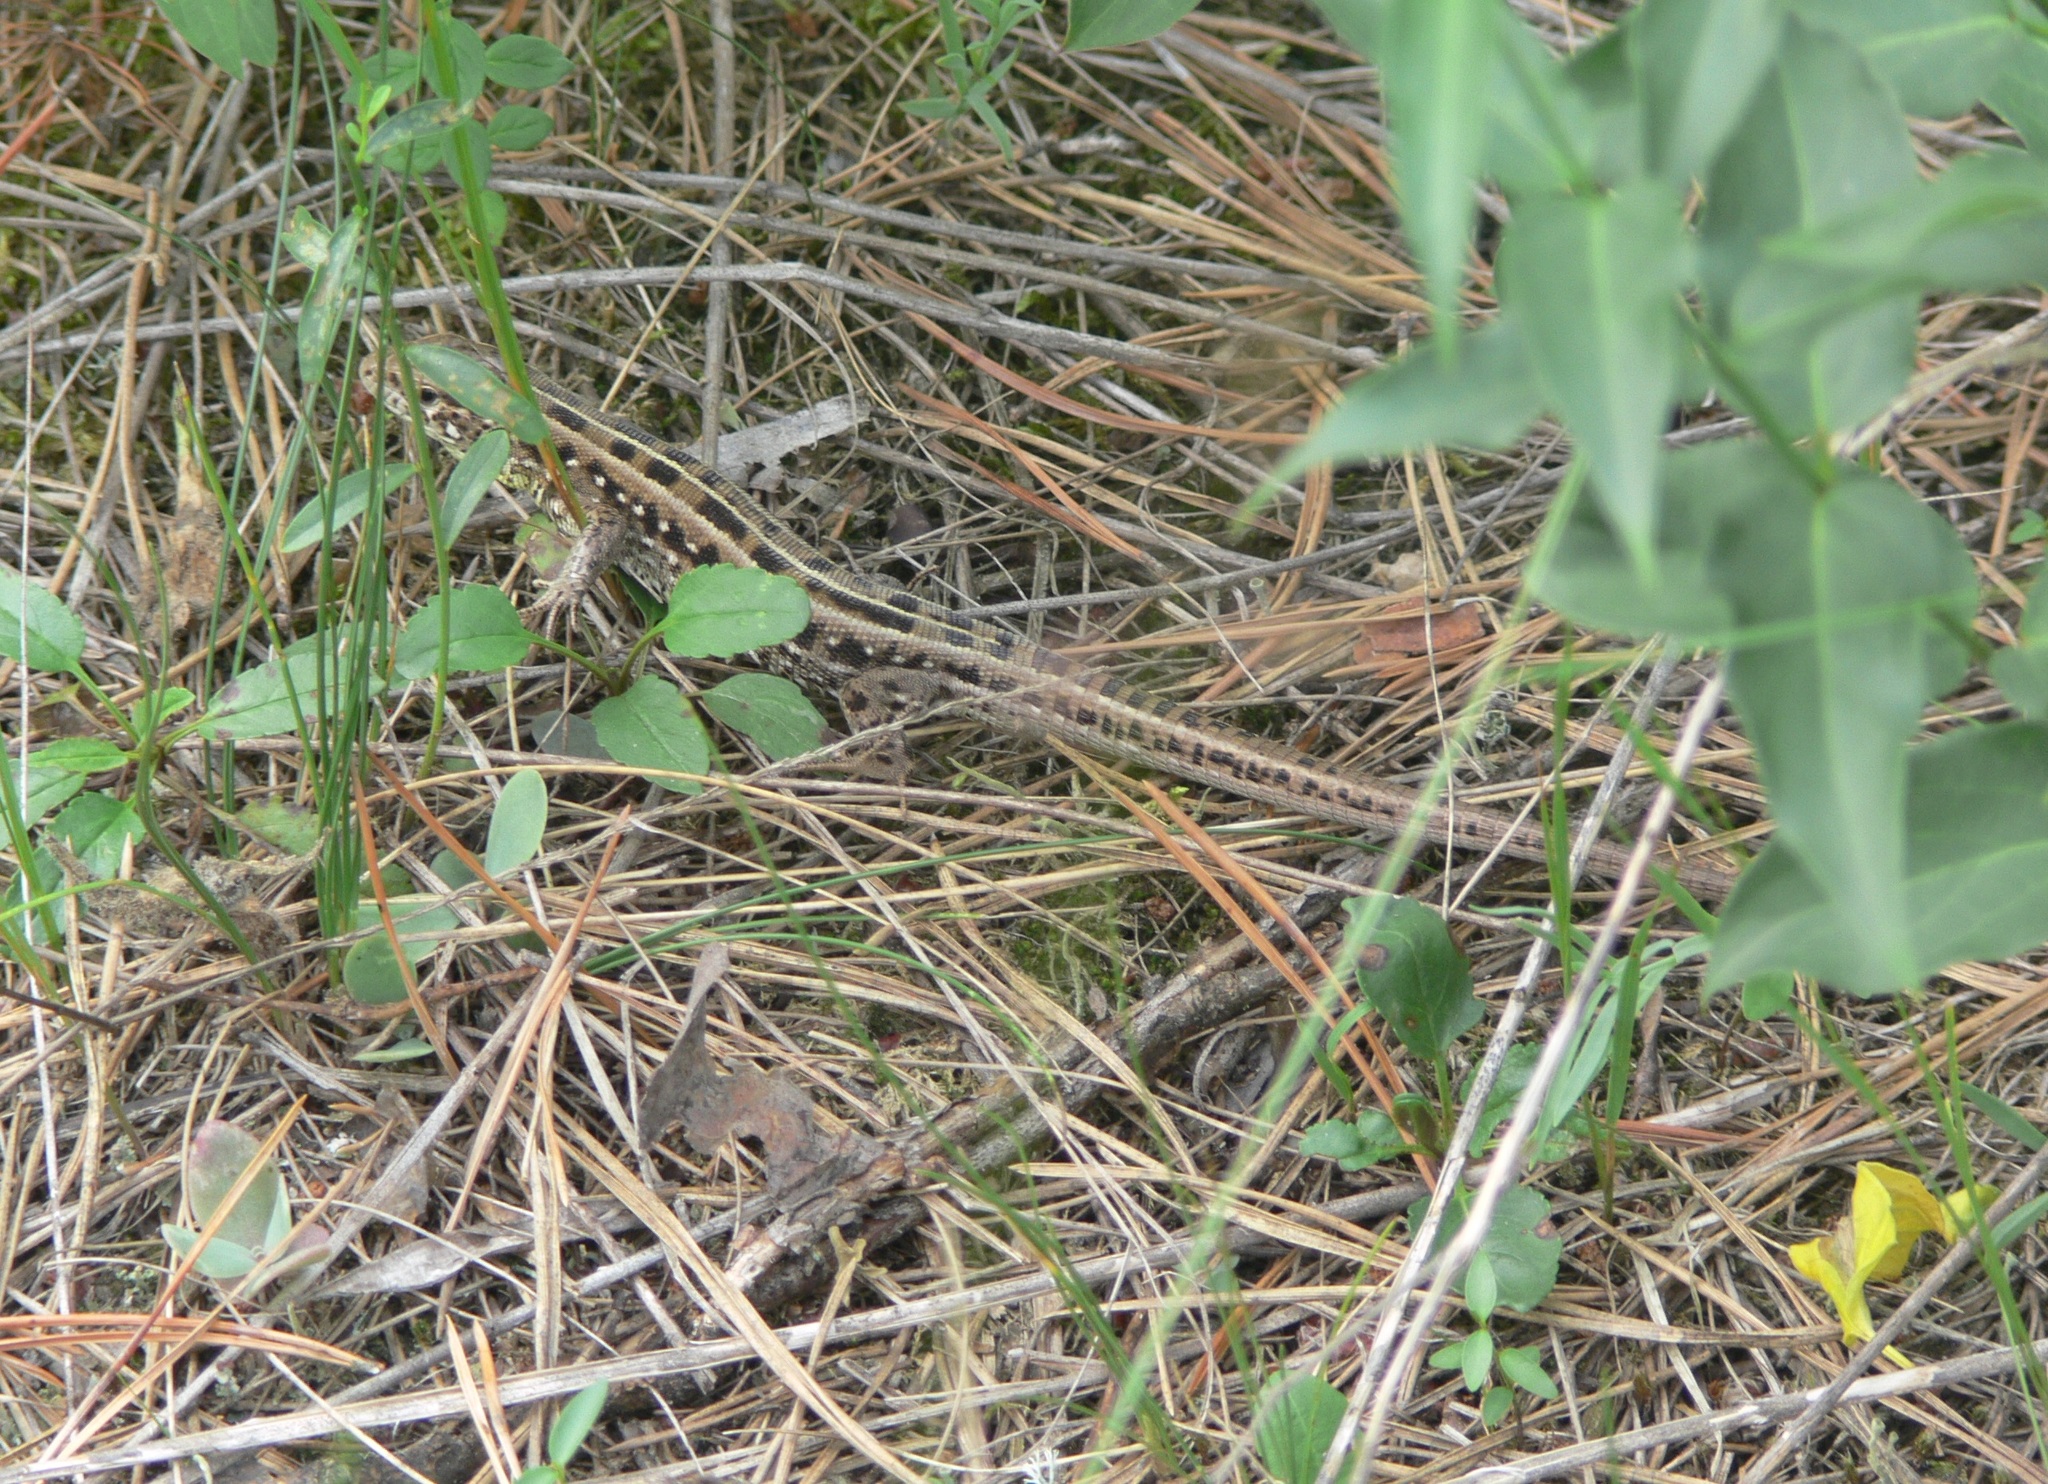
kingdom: Animalia
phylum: Chordata
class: Squamata
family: Lacertidae
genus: Lacerta
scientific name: Lacerta agilis
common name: Sand lizard
